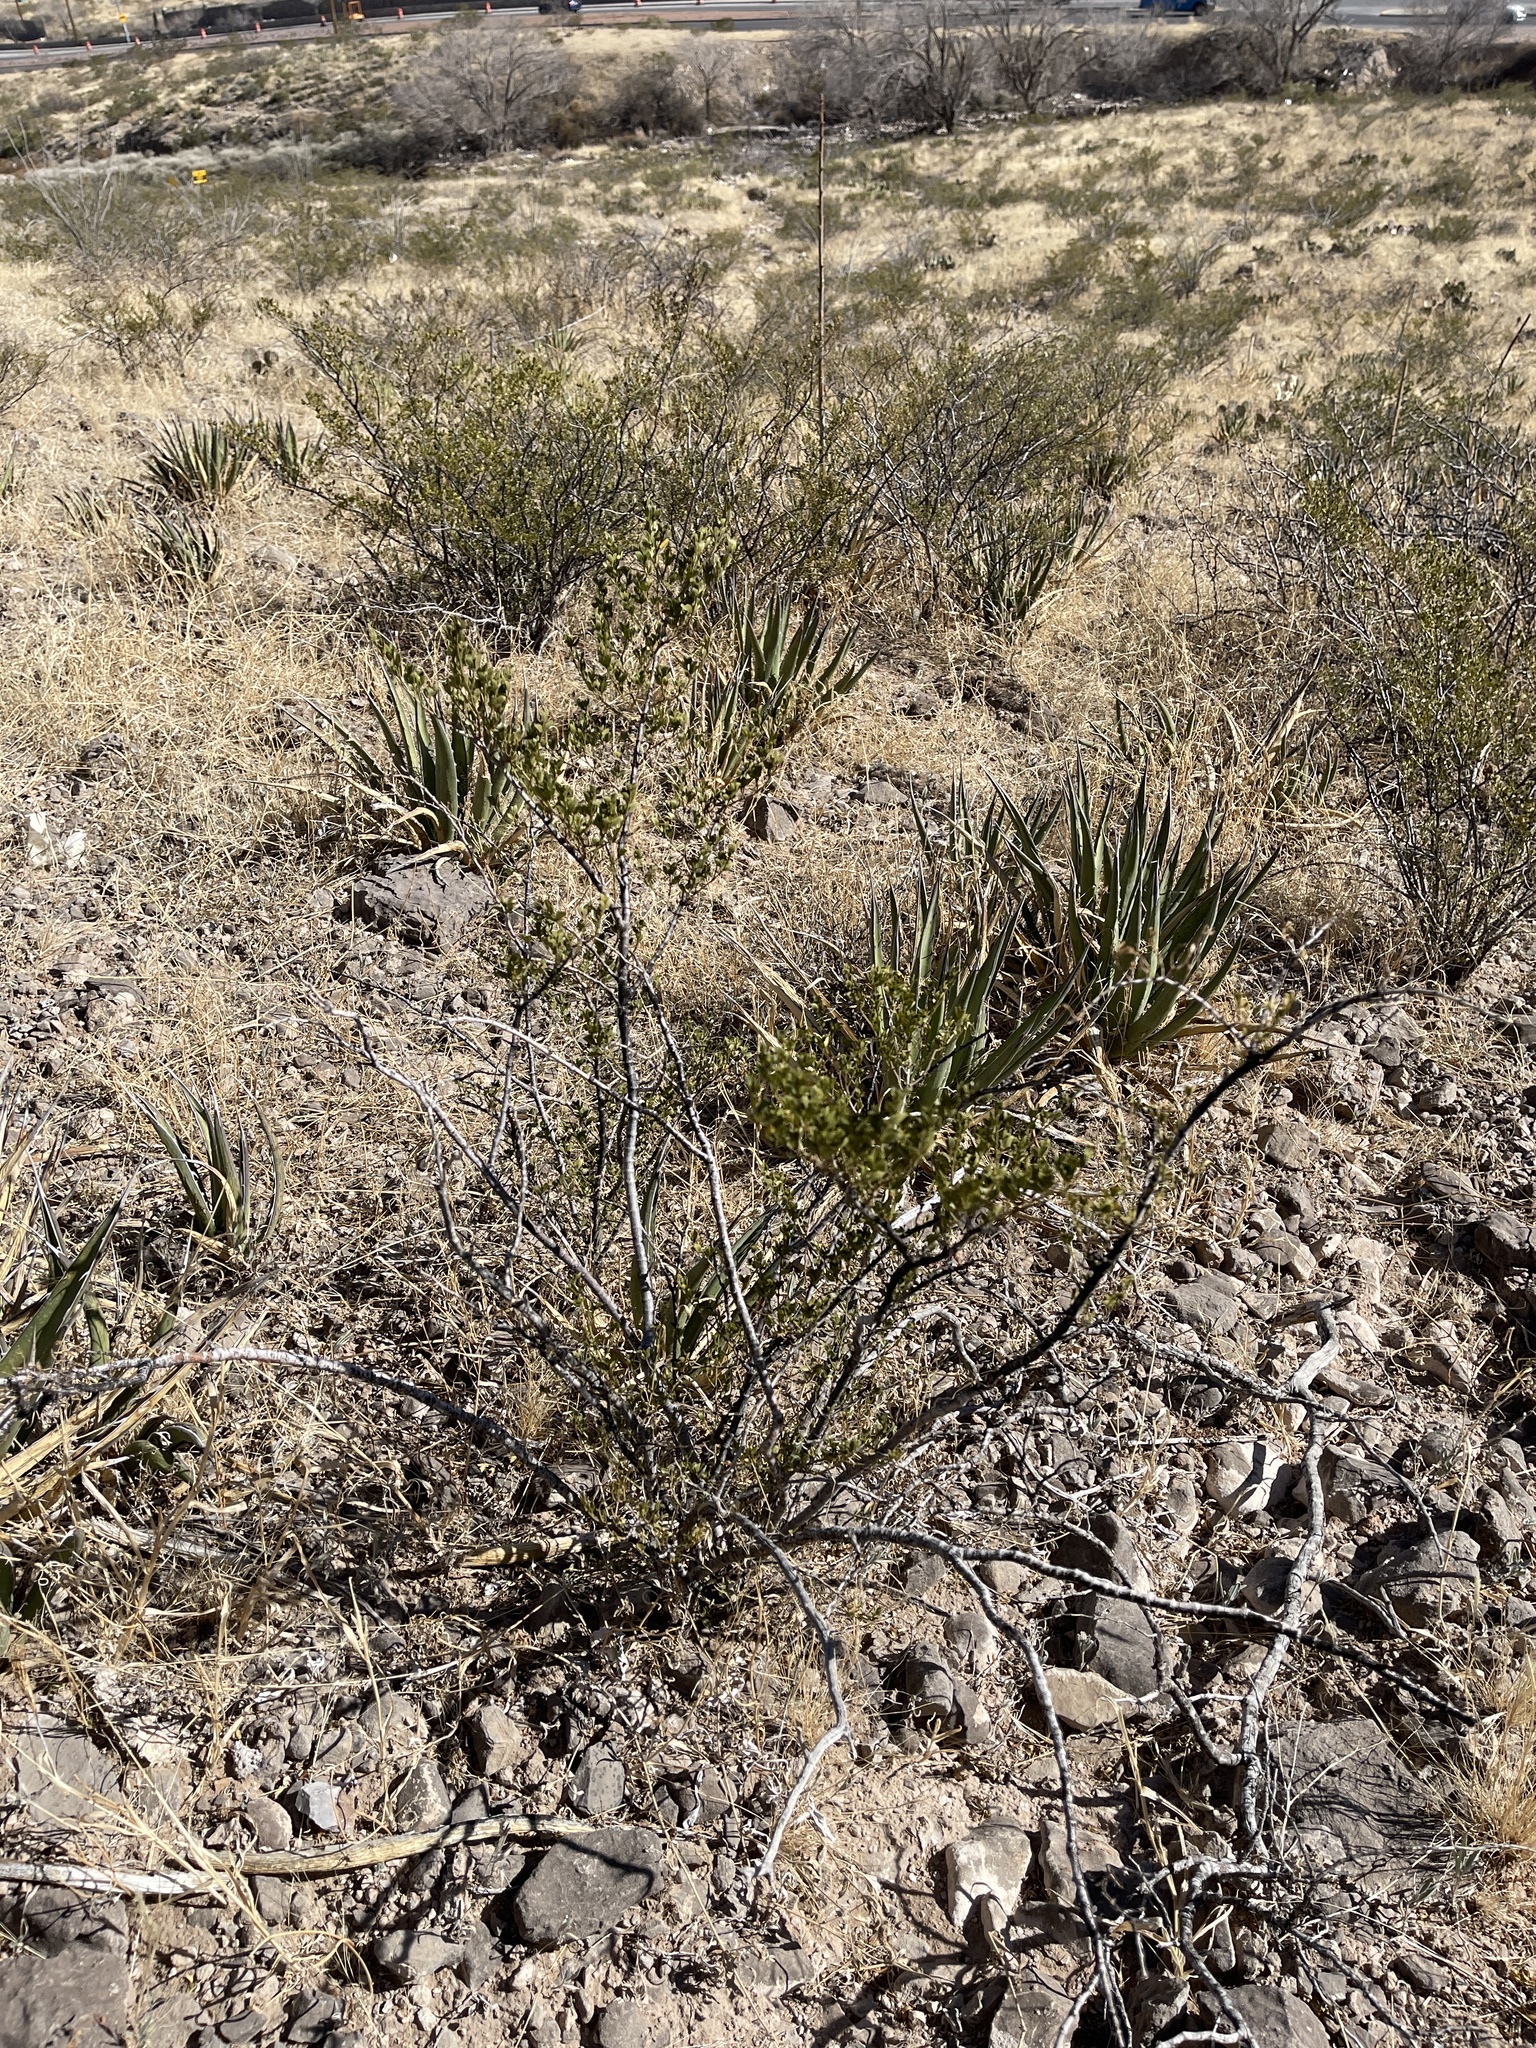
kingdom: Plantae
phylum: Tracheophyta
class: Magnoliopsida
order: Zygophyllales
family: Zygophyllaceae
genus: Larrea
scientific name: Larrea tridentata
